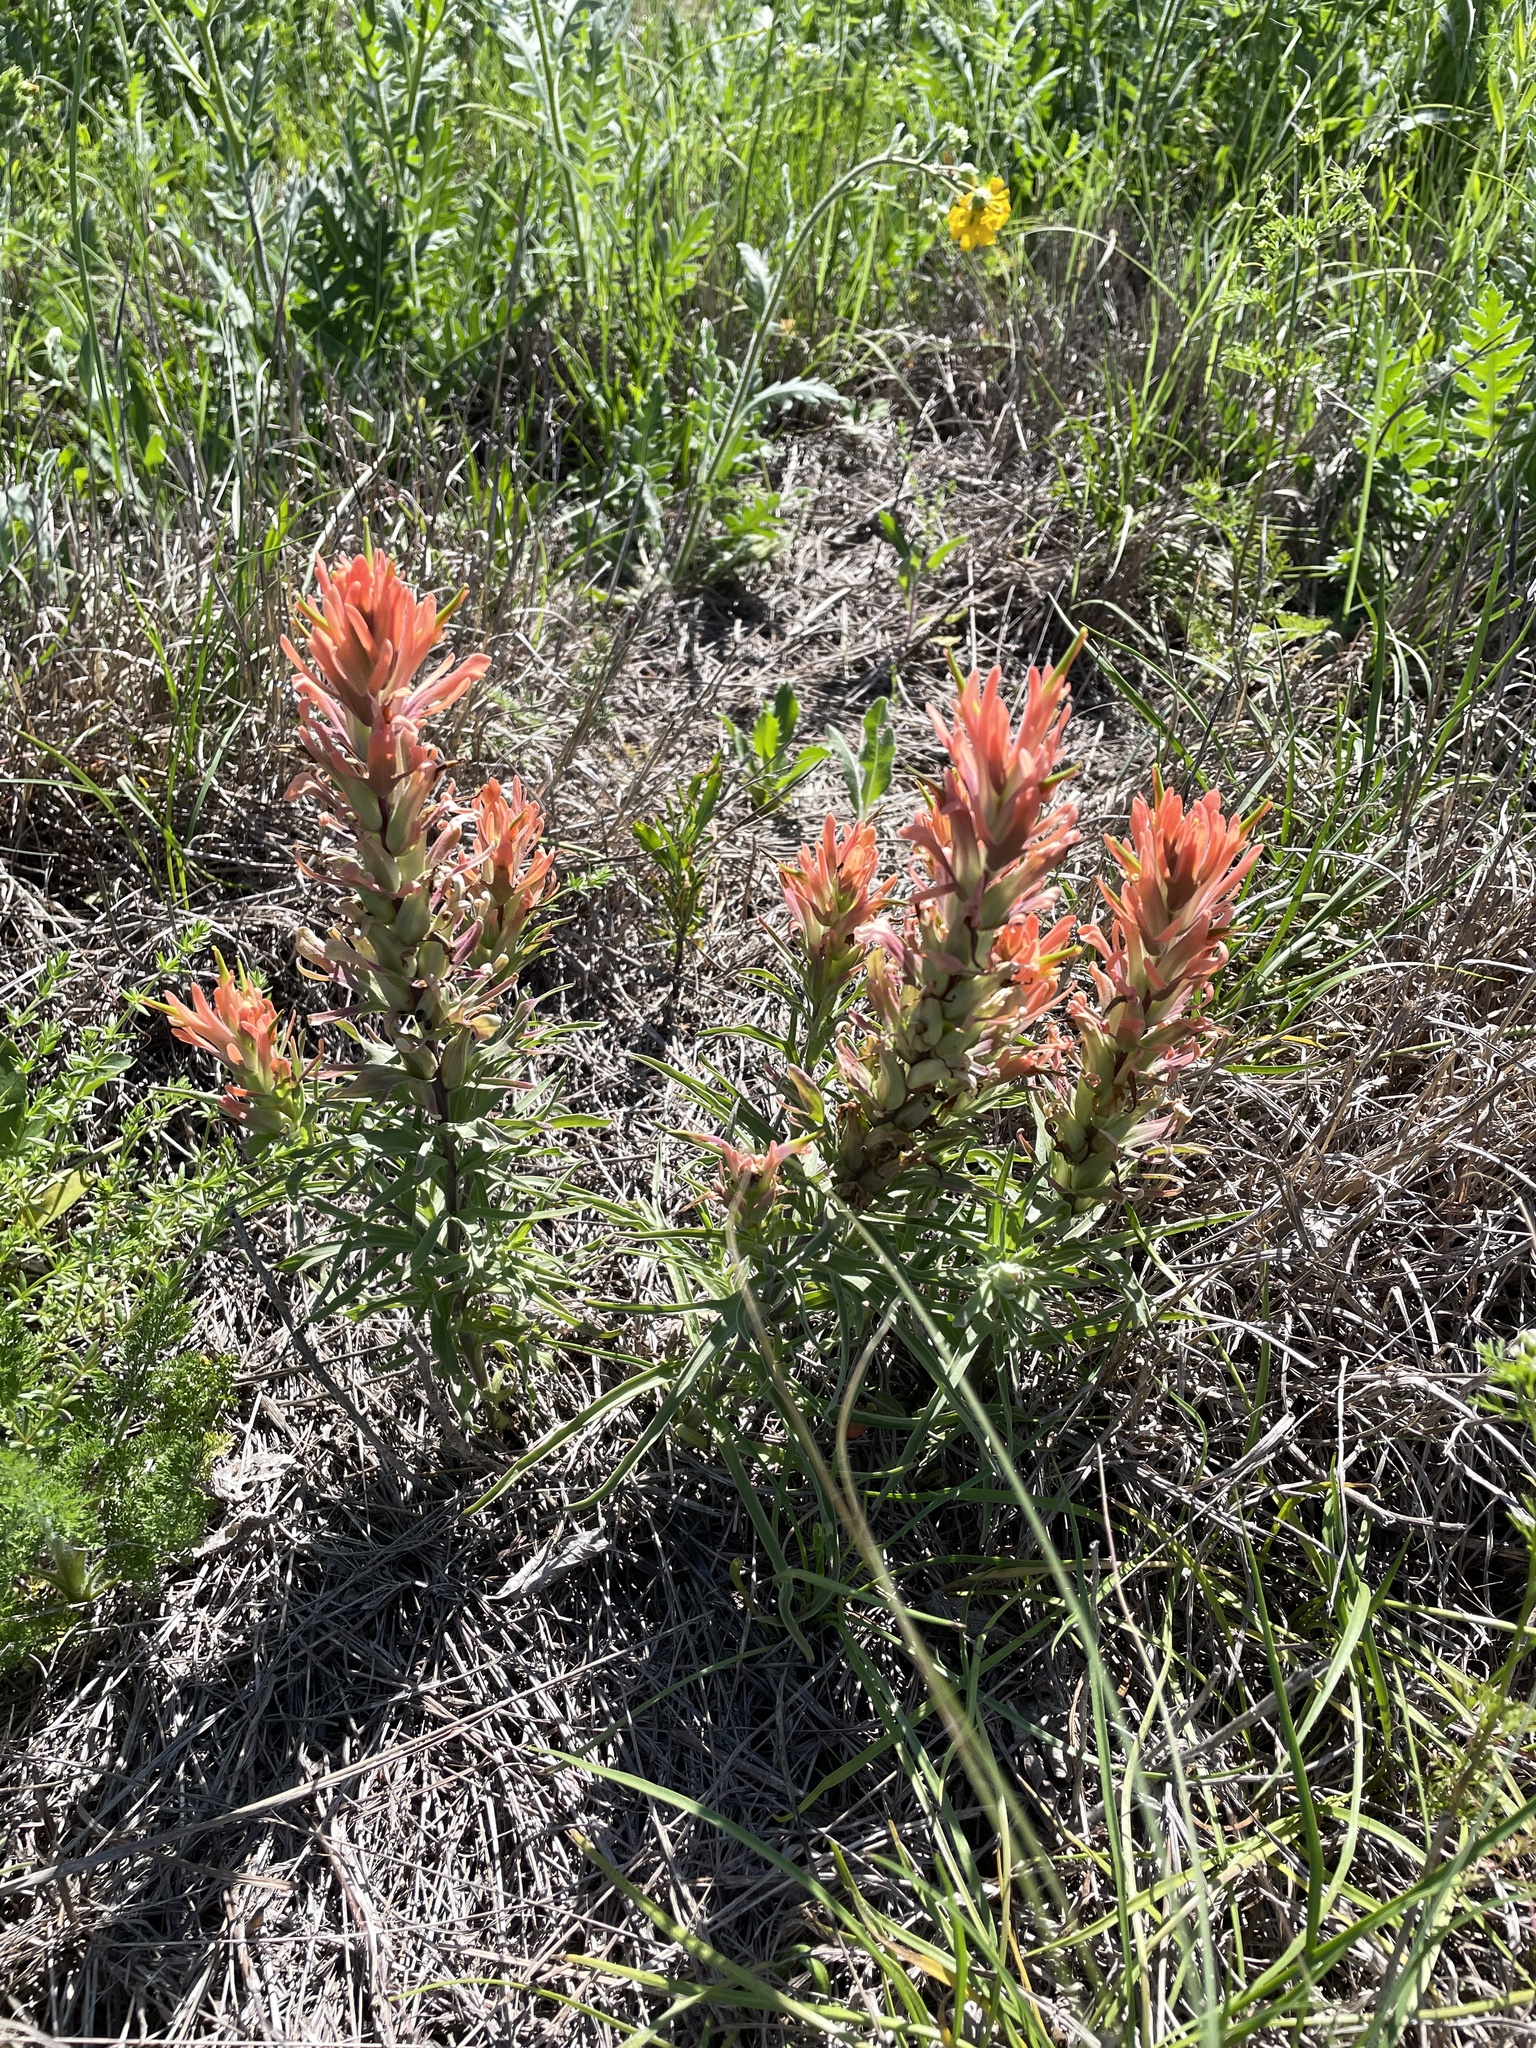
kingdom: Plantae
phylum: Tracheophyta
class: Magnoliopsida
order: Lamiales
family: Orobanchaceae
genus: Castilleja
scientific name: Castilleja lindheimeri
